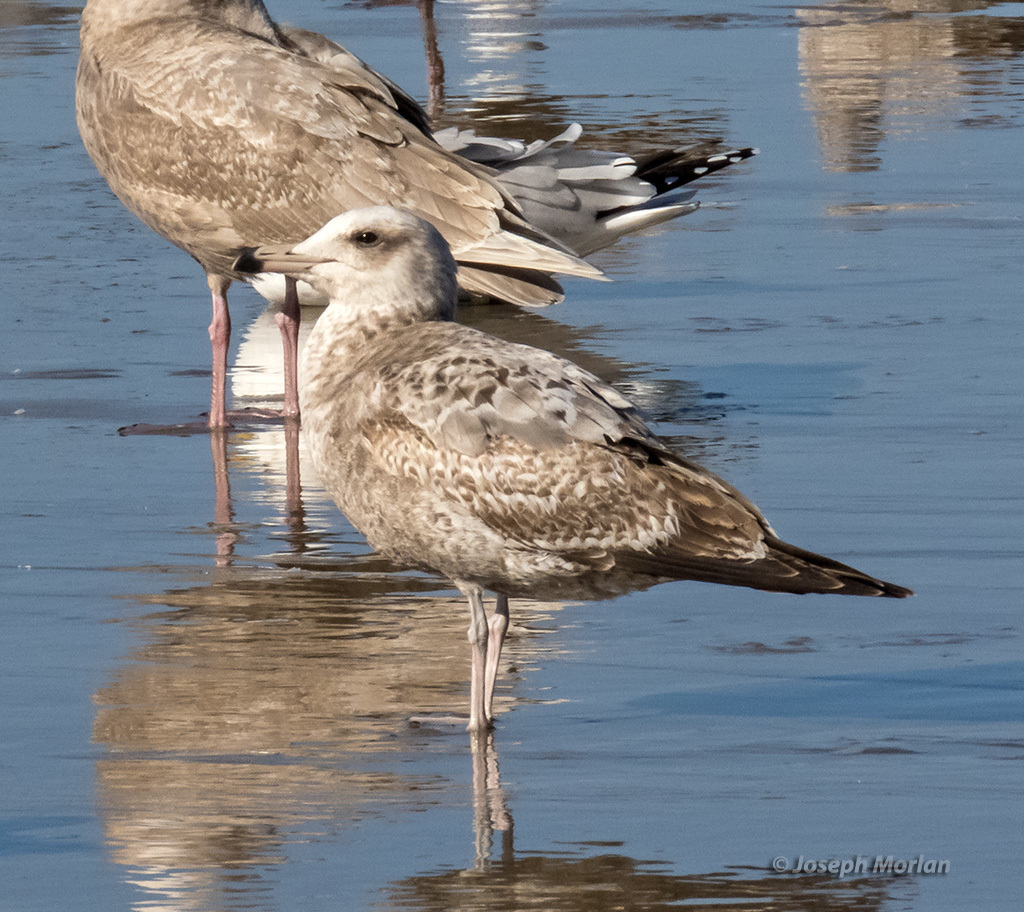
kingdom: Animalia
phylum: Chordata
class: Aves
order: Charadriiformes
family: Laridae
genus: Larus
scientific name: Larus californicus
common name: California gull
